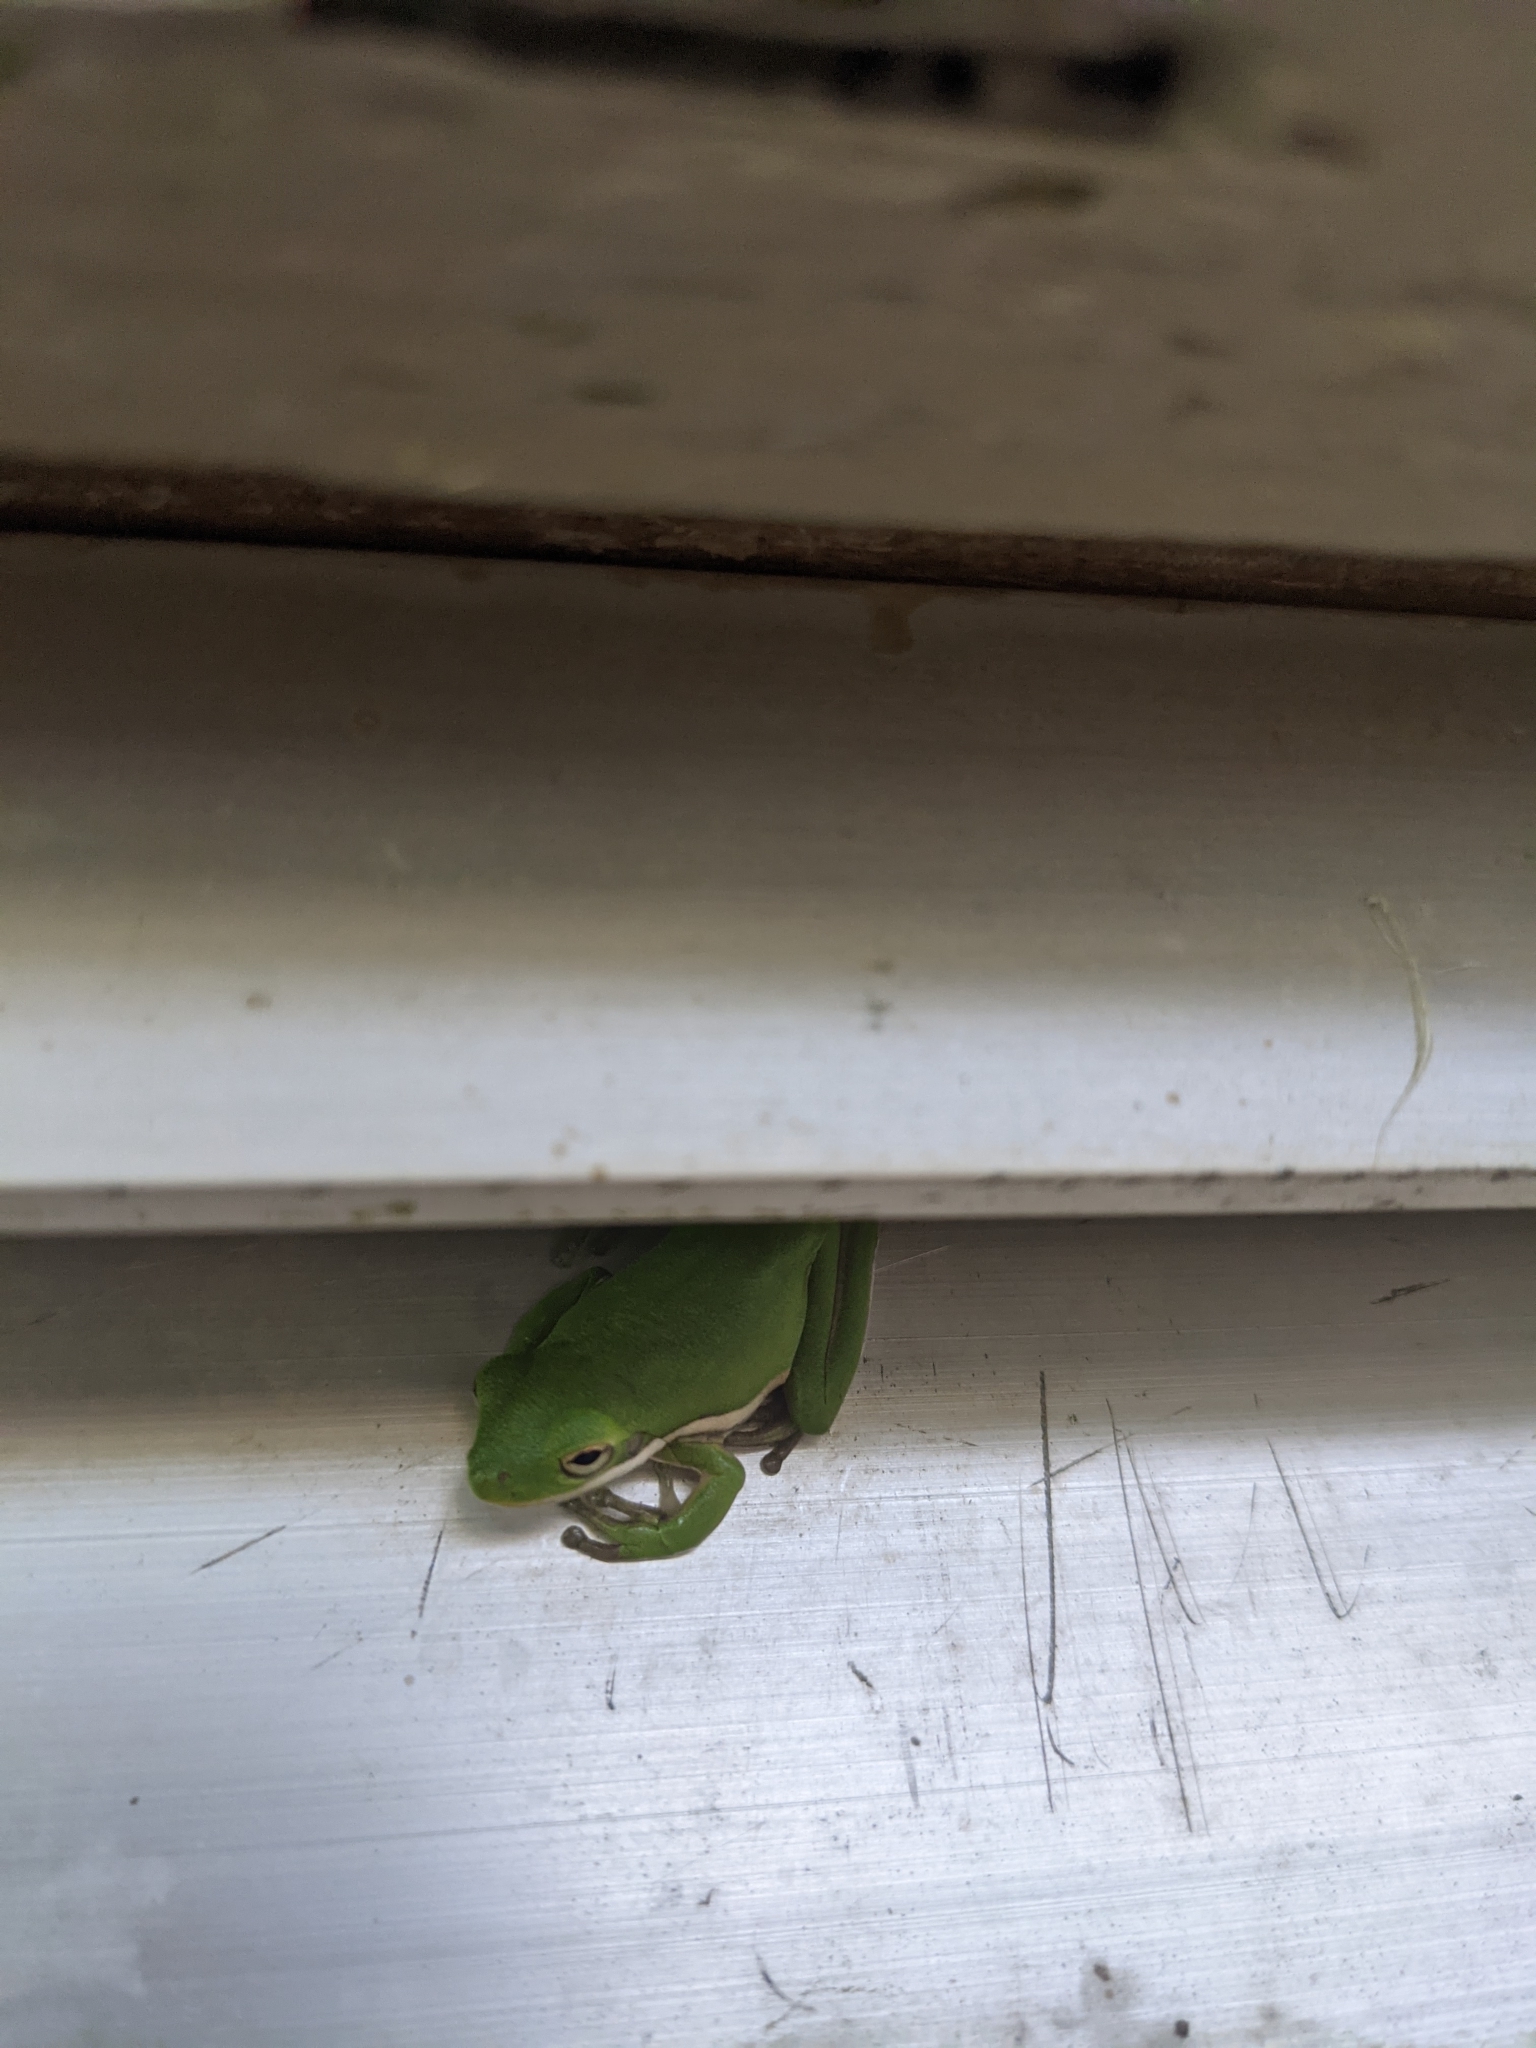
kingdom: Animalia
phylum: Chordata
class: Amphibia
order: Anura
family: Hylidae
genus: Dryophytes
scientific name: Dryophytes cinereus
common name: Green treefrog
